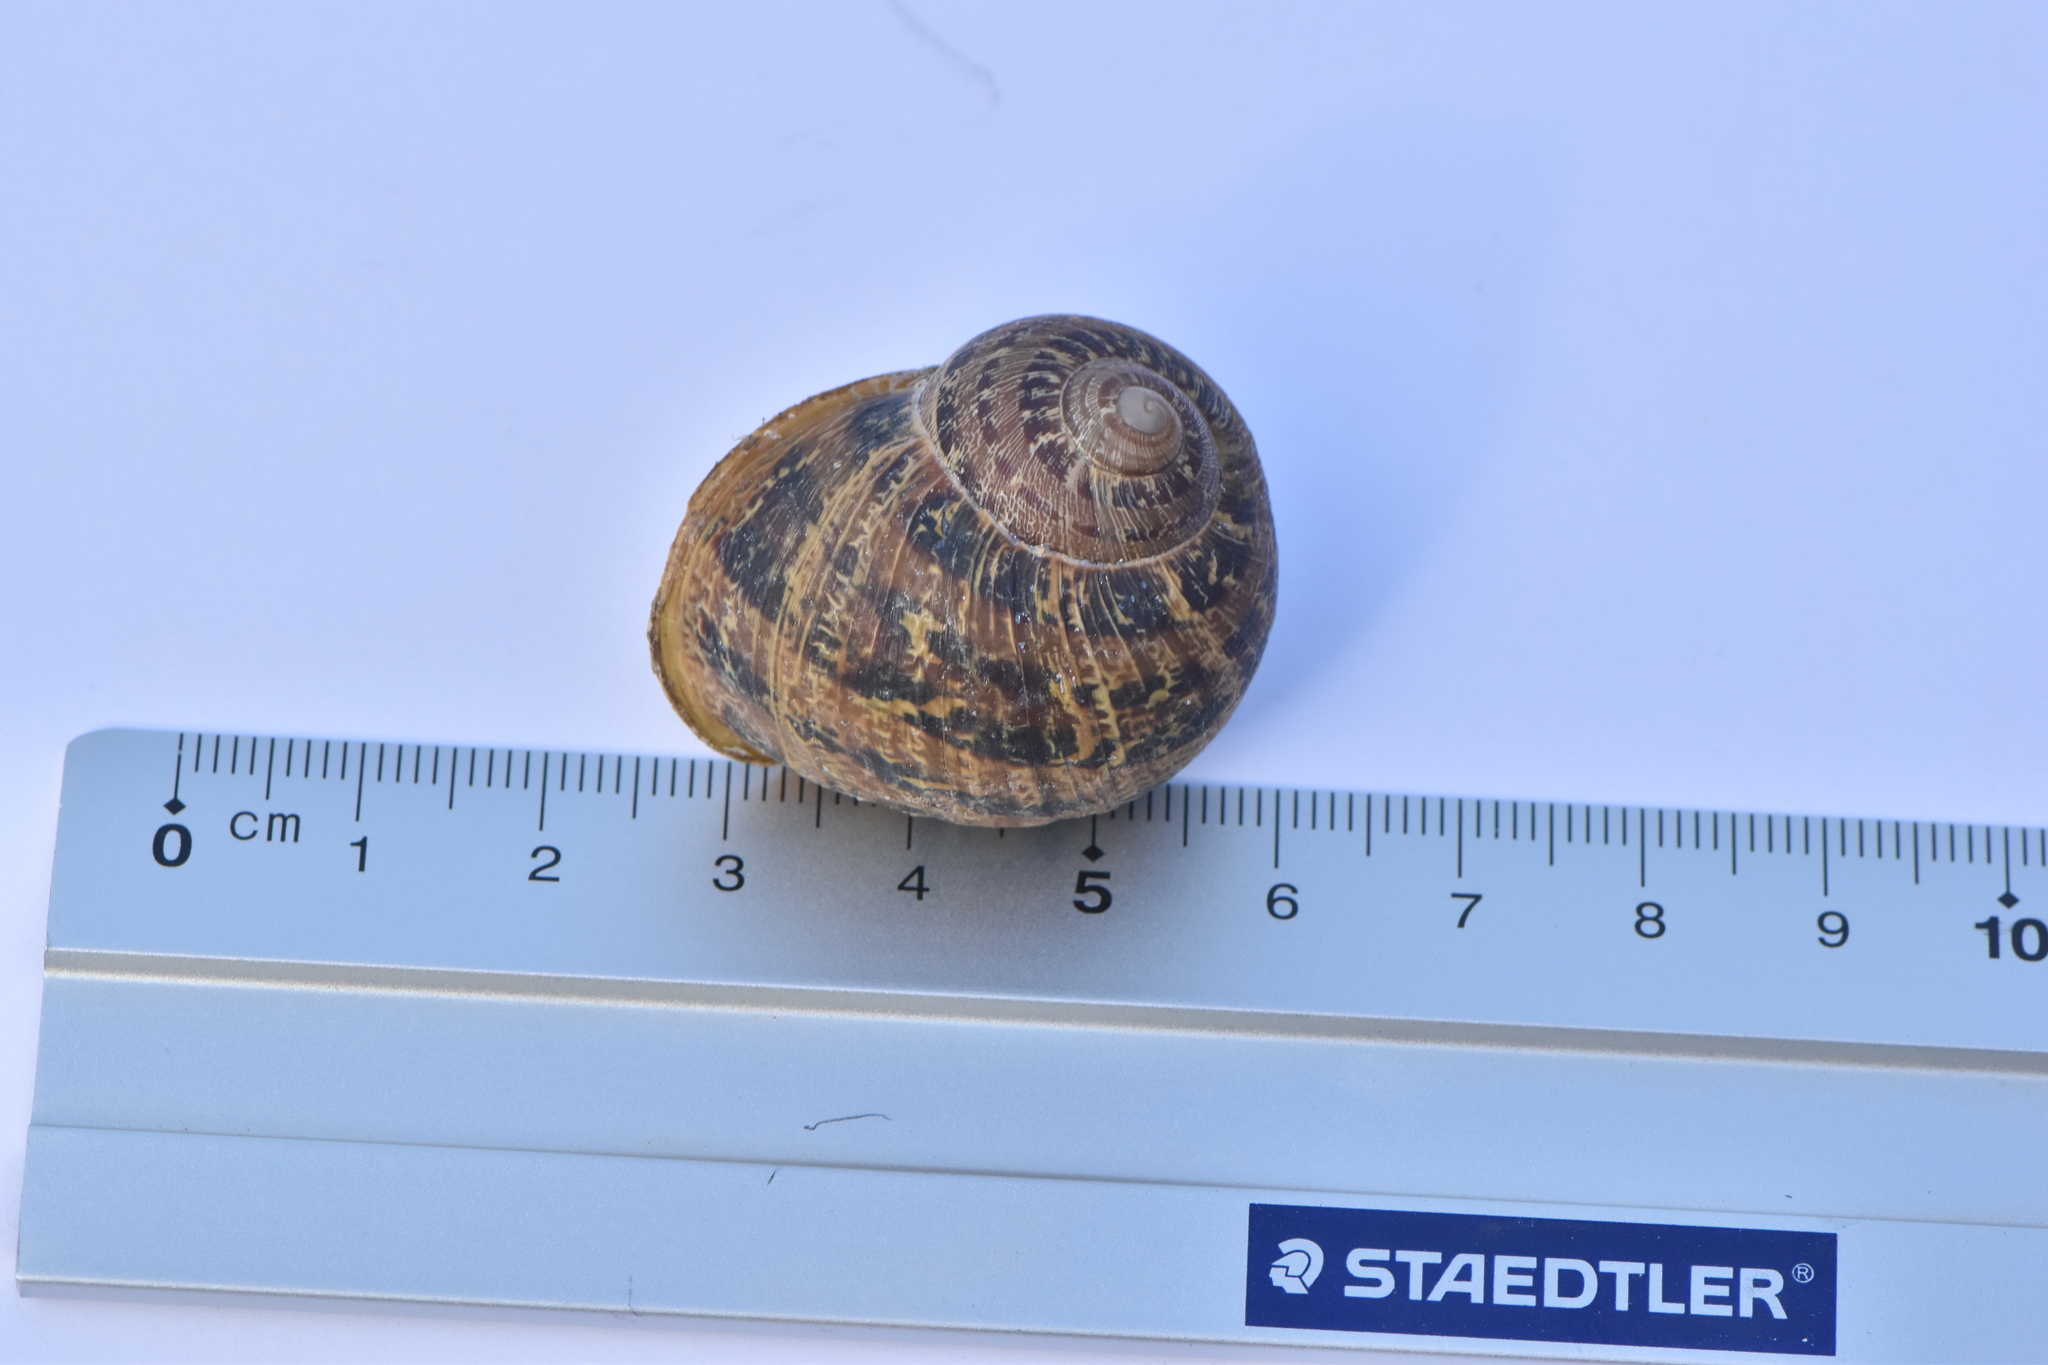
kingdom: Animalia
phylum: Mollusca
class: Gastropoda
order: Stylommatophora
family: Helicidae
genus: Cornu
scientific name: Cornu aspersum
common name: Brown garden snail
